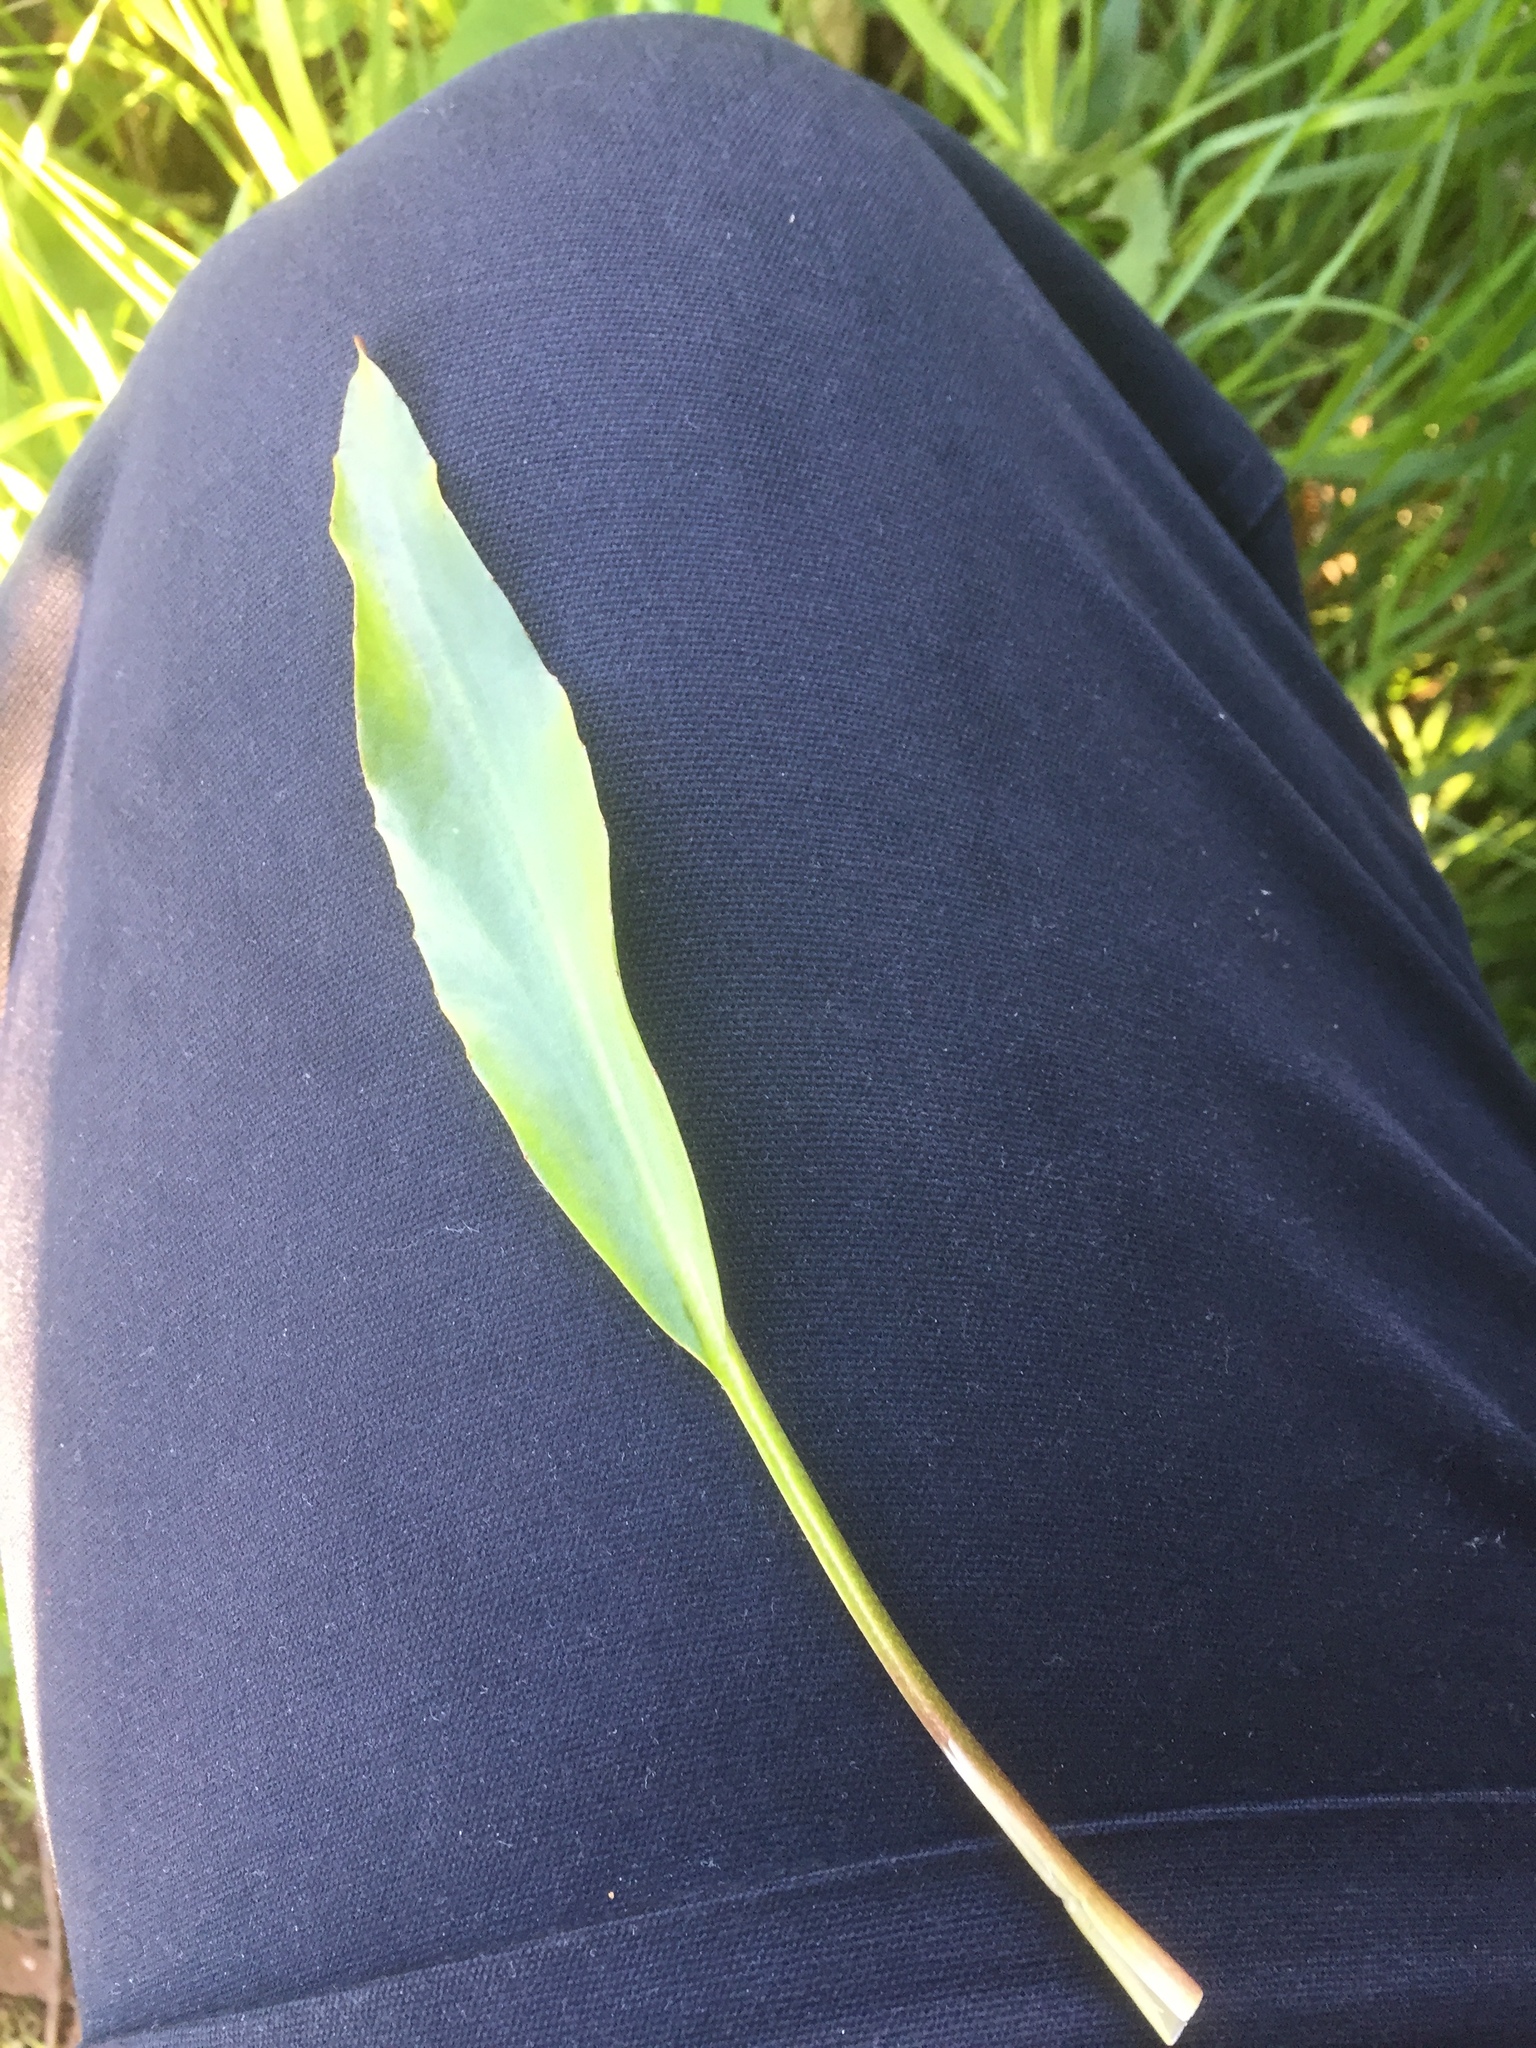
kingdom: Plantae
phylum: Tracheophyta
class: Liliopsida
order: Alismatales
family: Alismataceae
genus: Alisma
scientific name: Alisma lanceolatum
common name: Narrow-leaved water-plantain
